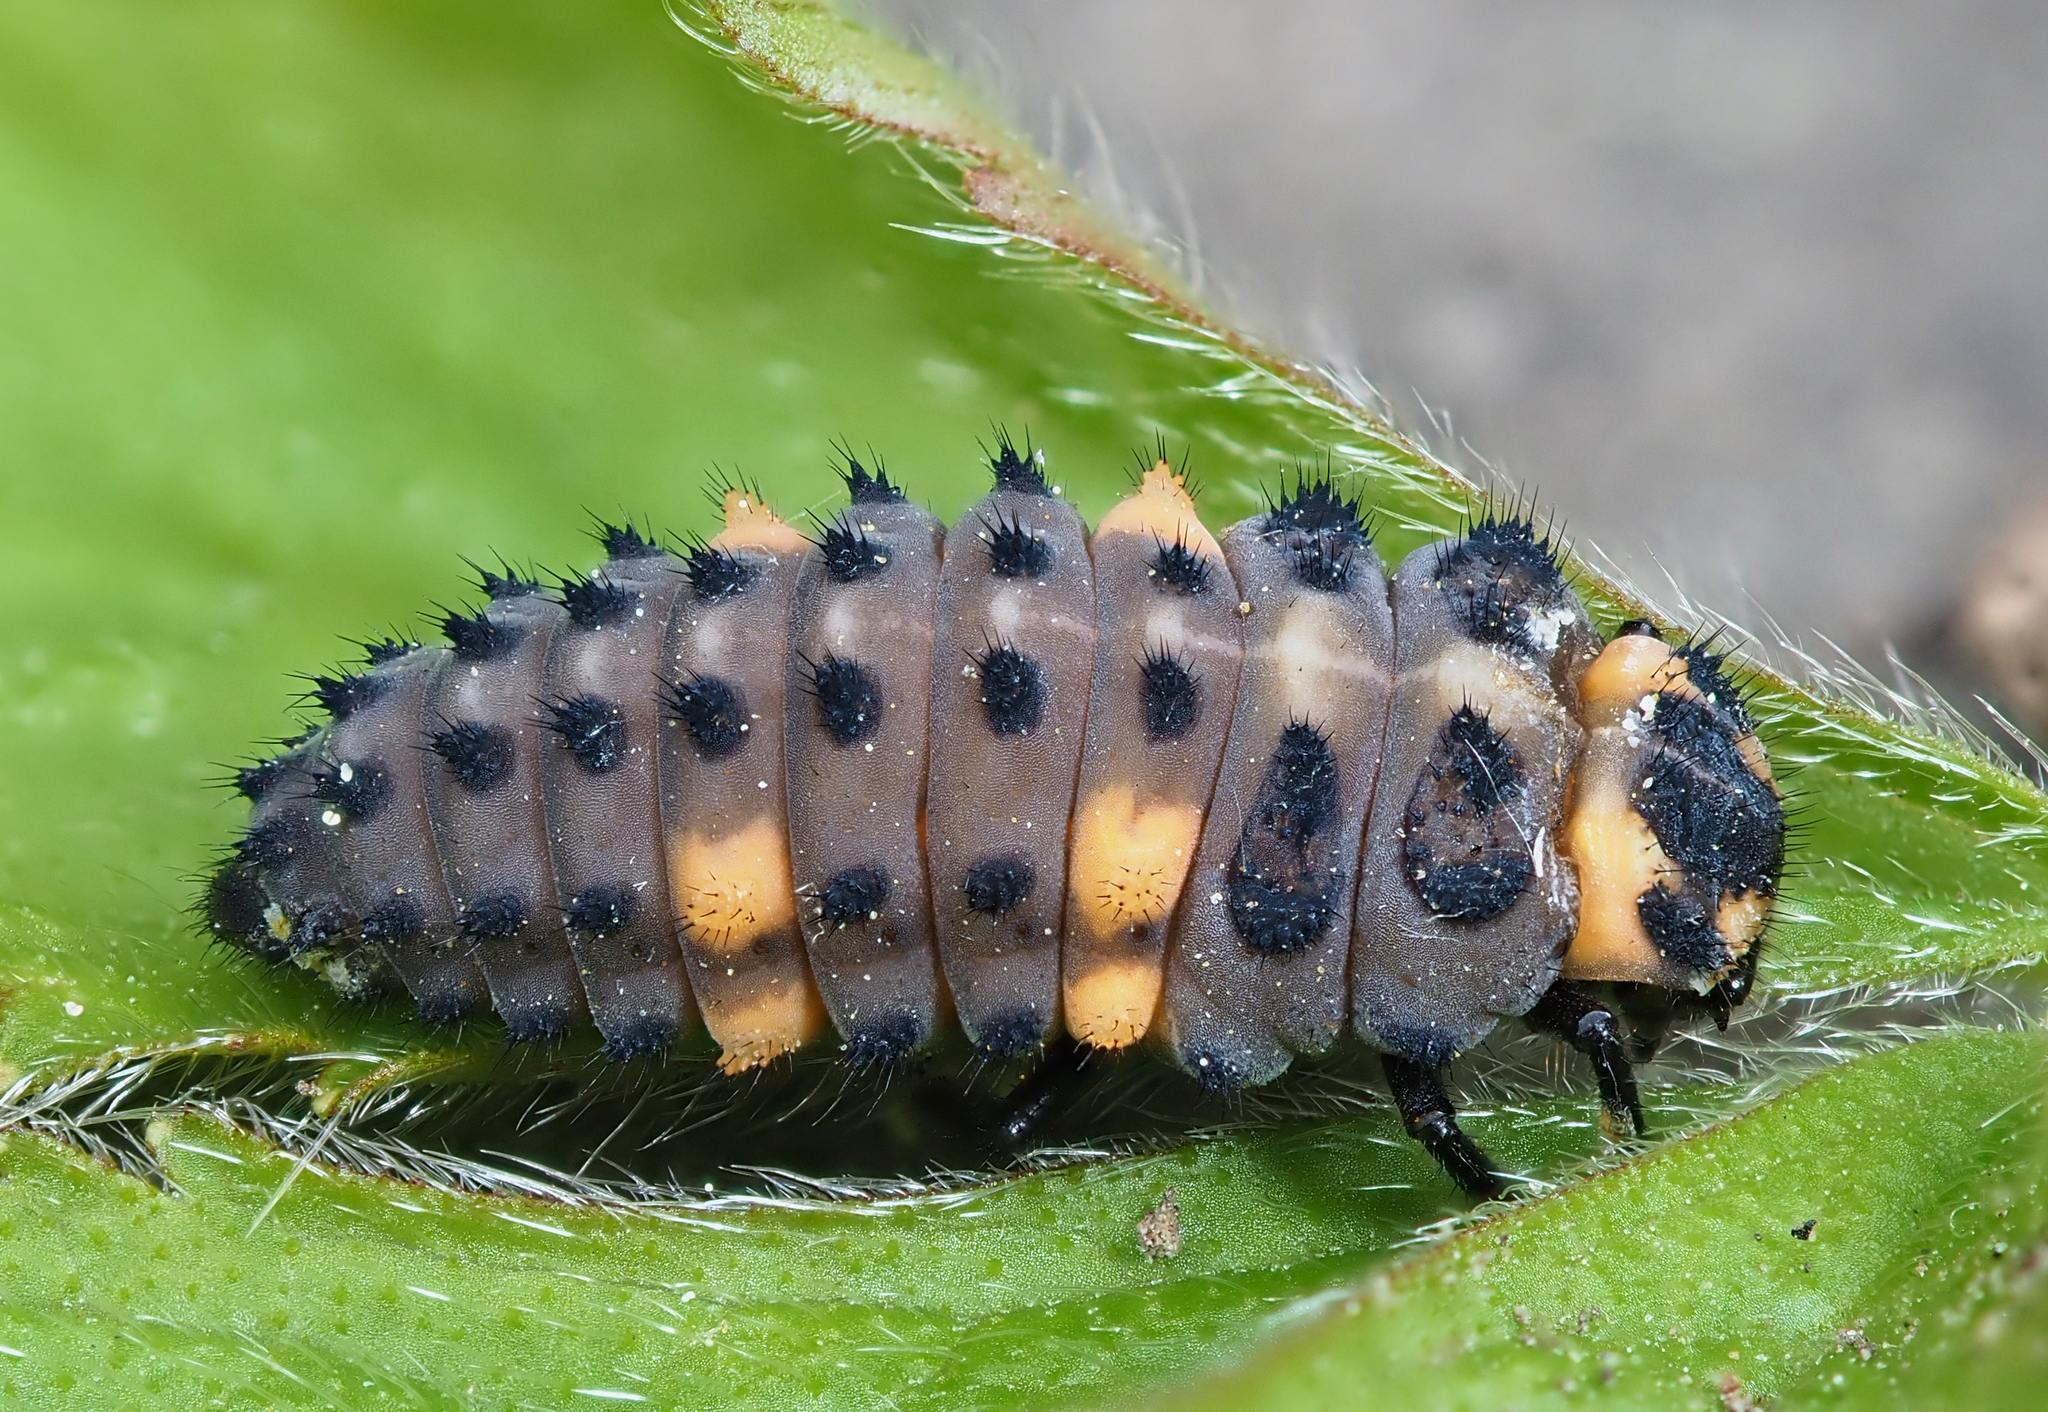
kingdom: Animalia
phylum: Arthropoda
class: Insecta
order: Coleoptera
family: Coccinellidae
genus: Coccinella
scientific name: Coccinella septempunctata
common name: Sevenspotted lady beetle
